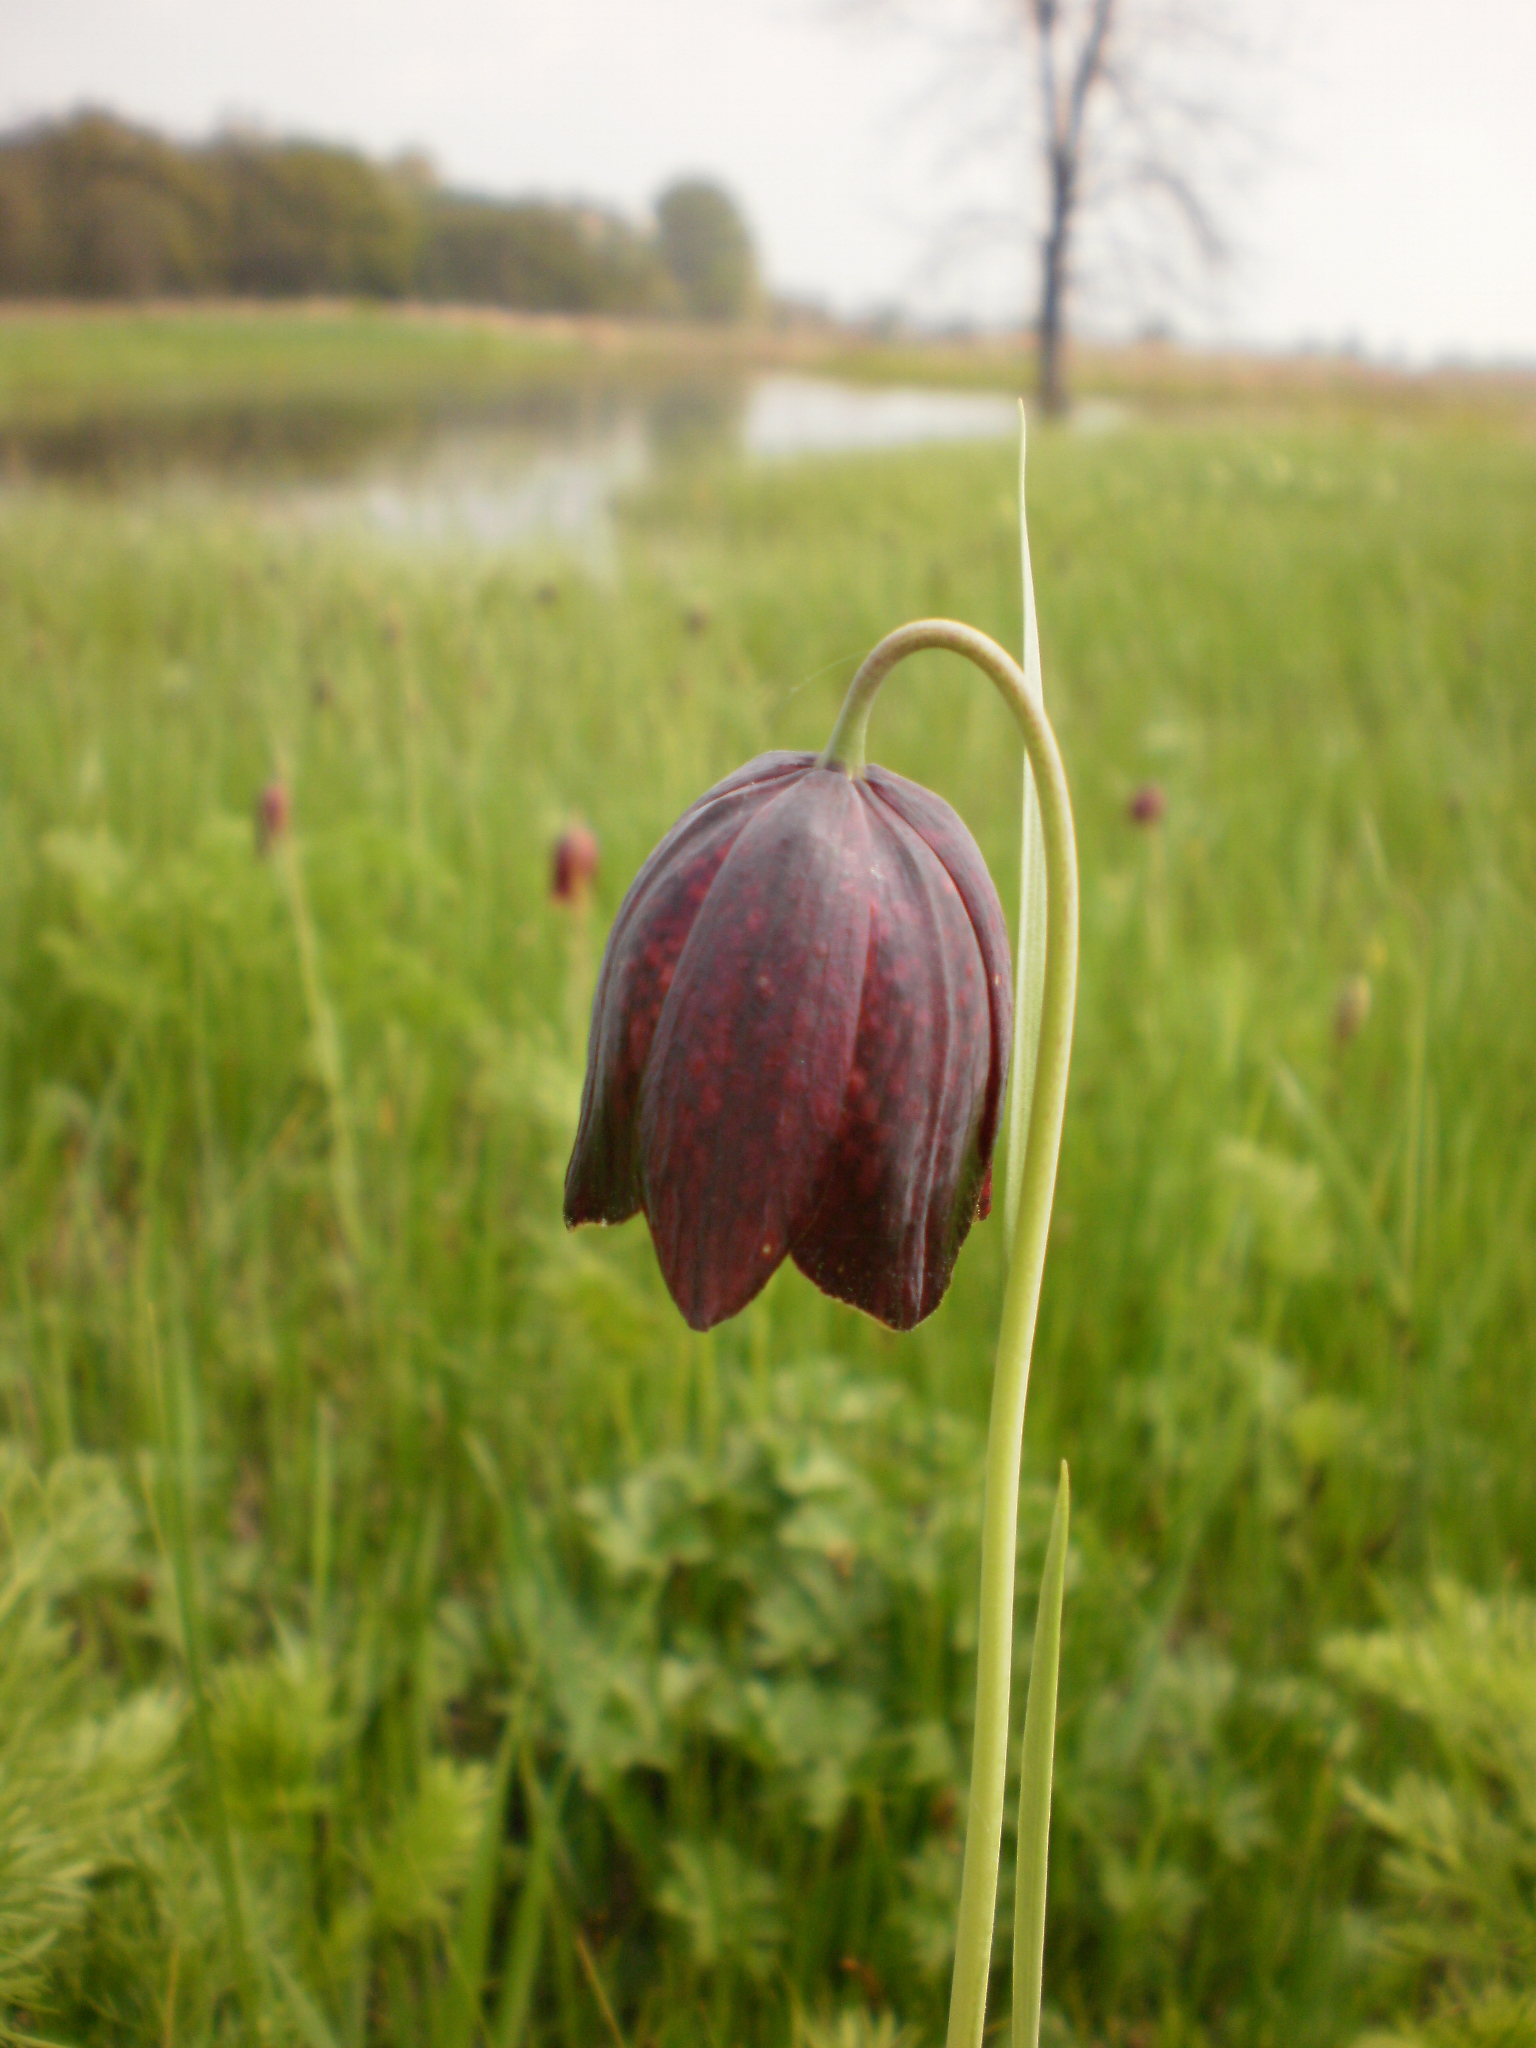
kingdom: Plantae
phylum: Tracheophyta
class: Liliopsida
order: Liliales
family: Liliaceae
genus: Fritillaria
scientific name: Fritillaria meleagroides
